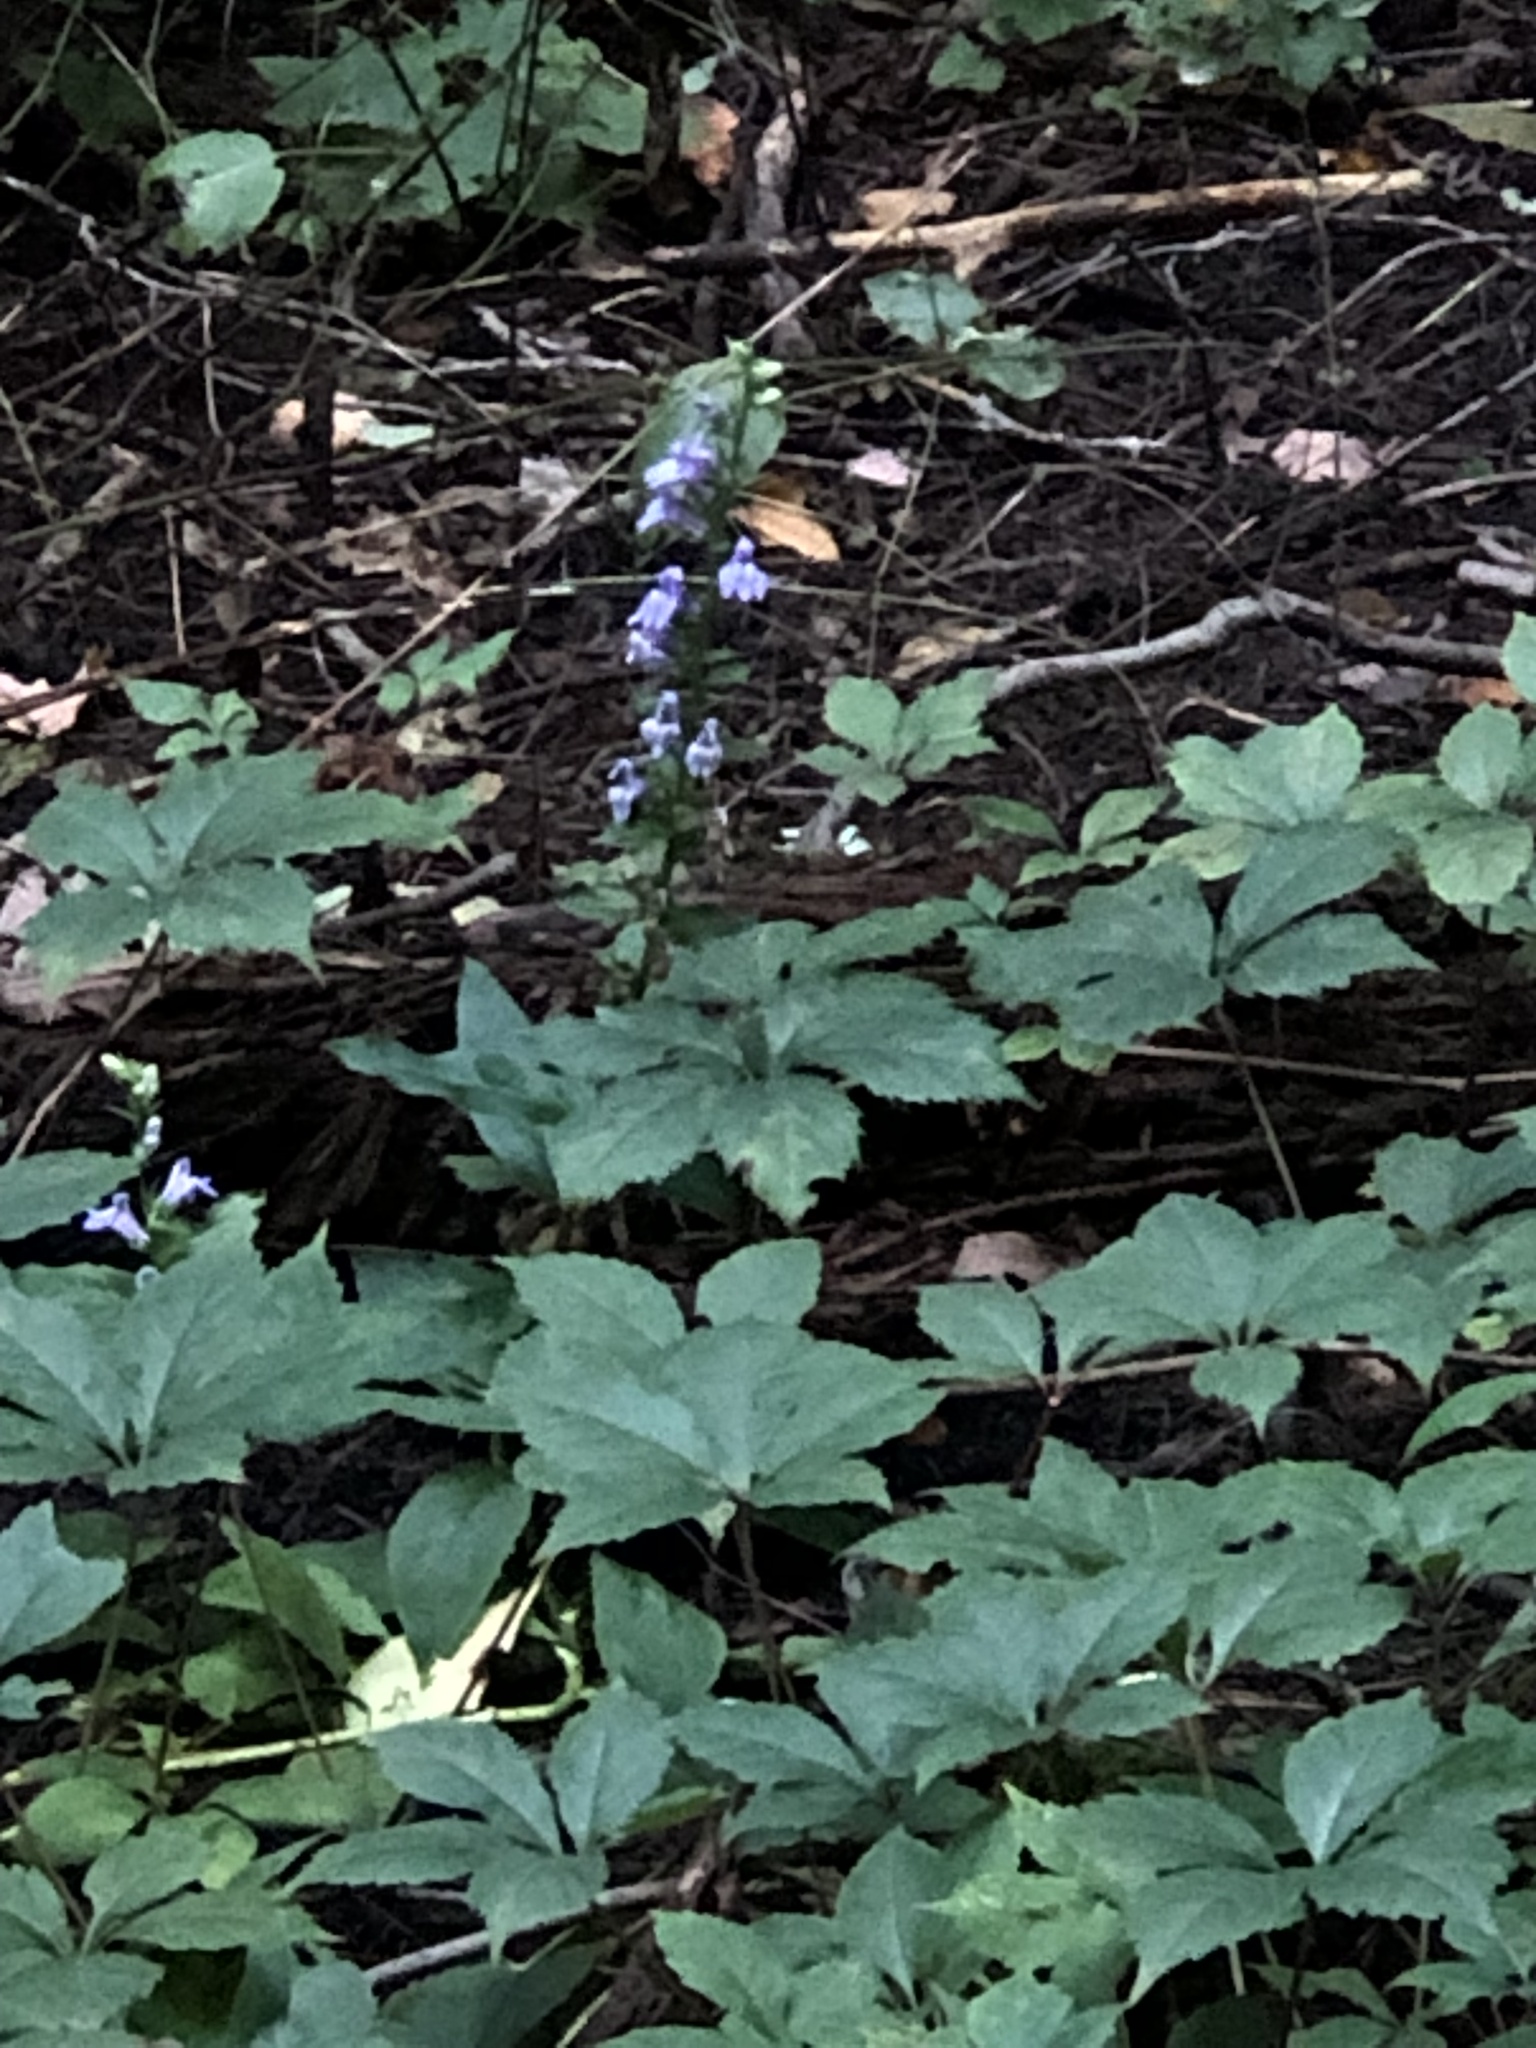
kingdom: Plantae
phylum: Tracheophyta
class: Magnoliopsida
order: Asterales
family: Campanulaceae
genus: Lobelia
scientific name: Lobelia siphilitica
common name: Great lobelia
